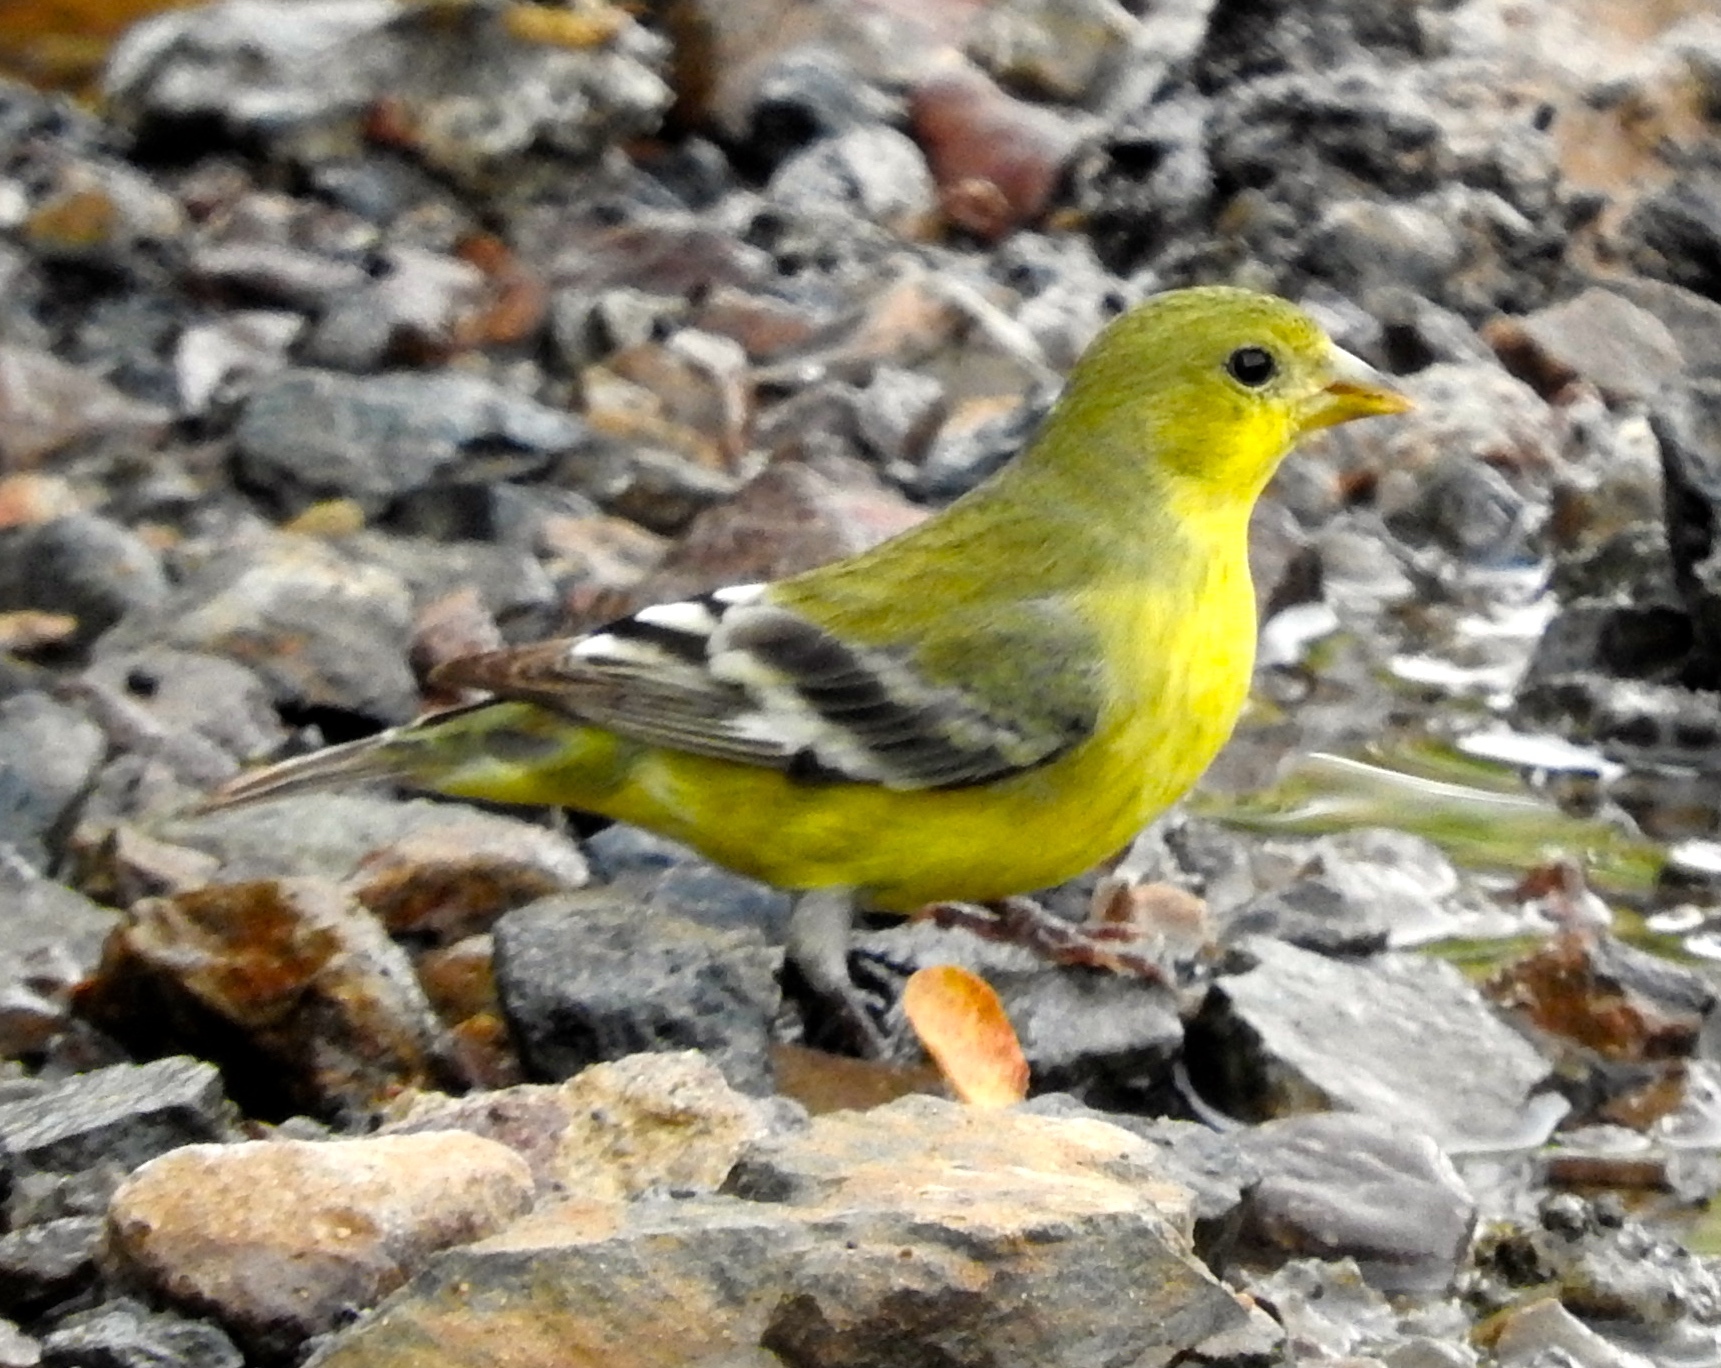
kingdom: Animalia
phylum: Chordata
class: Aves
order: Passeriformes
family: Fringillidae
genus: Spinus
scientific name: Spinus psaltria
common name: Lesser goldfinch
